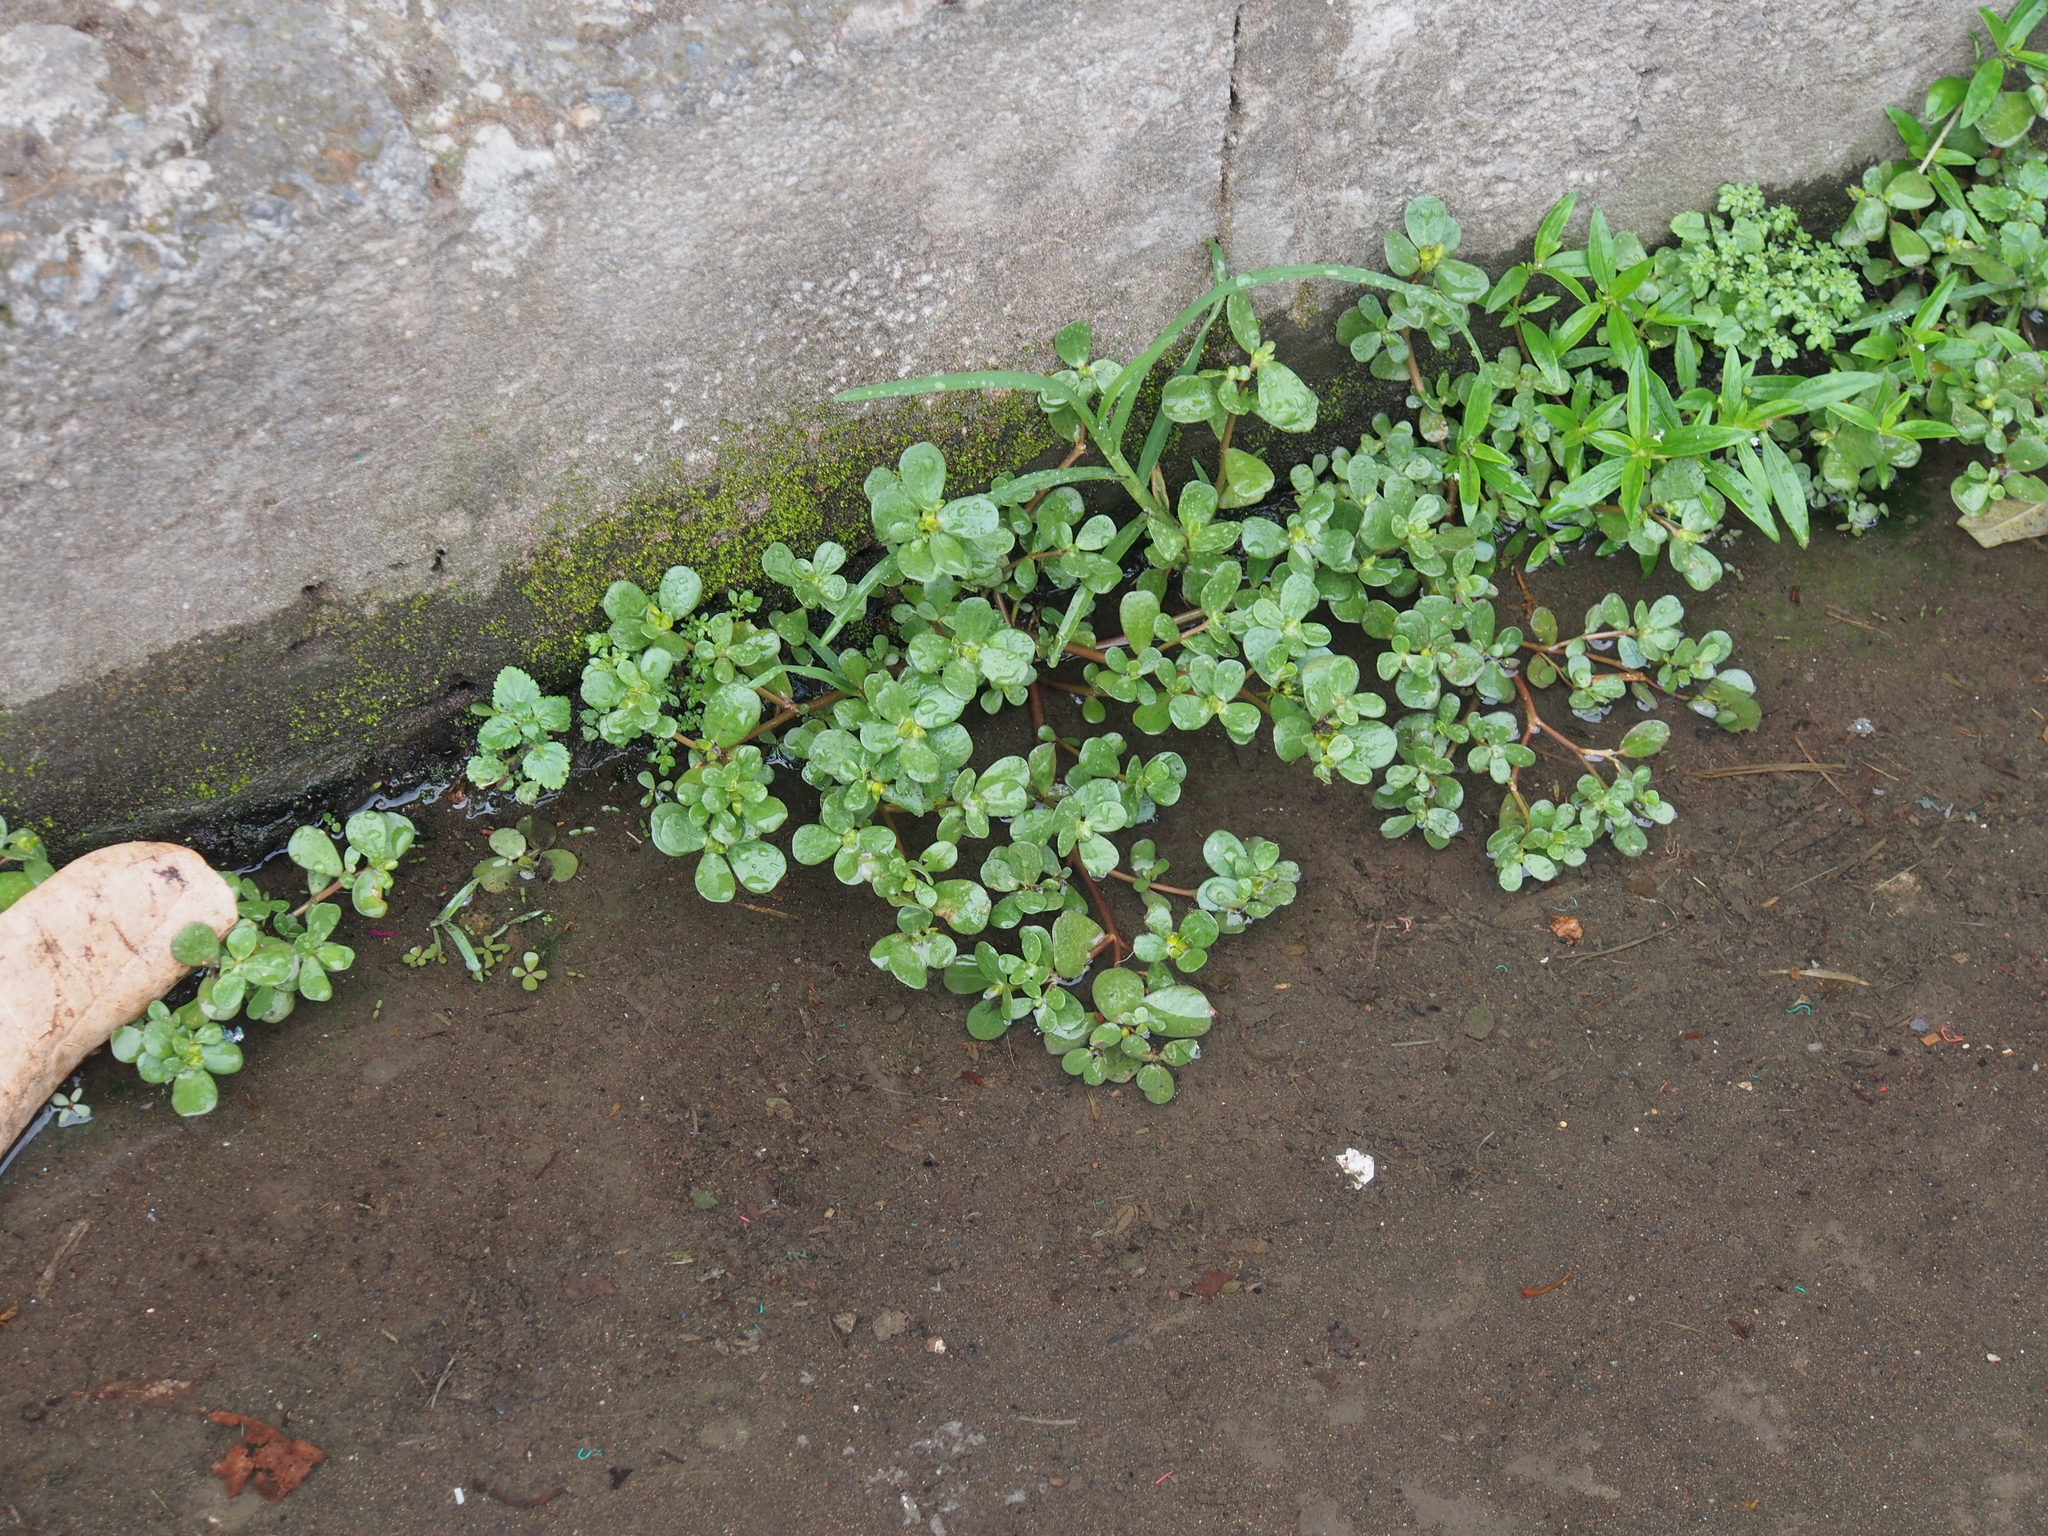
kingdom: Plantae
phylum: Tracheophyta
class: Magnoliopsida
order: Caryophyllales
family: Portulacaceae
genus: Portulaca
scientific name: Portulaca oleracea
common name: Common purslane
